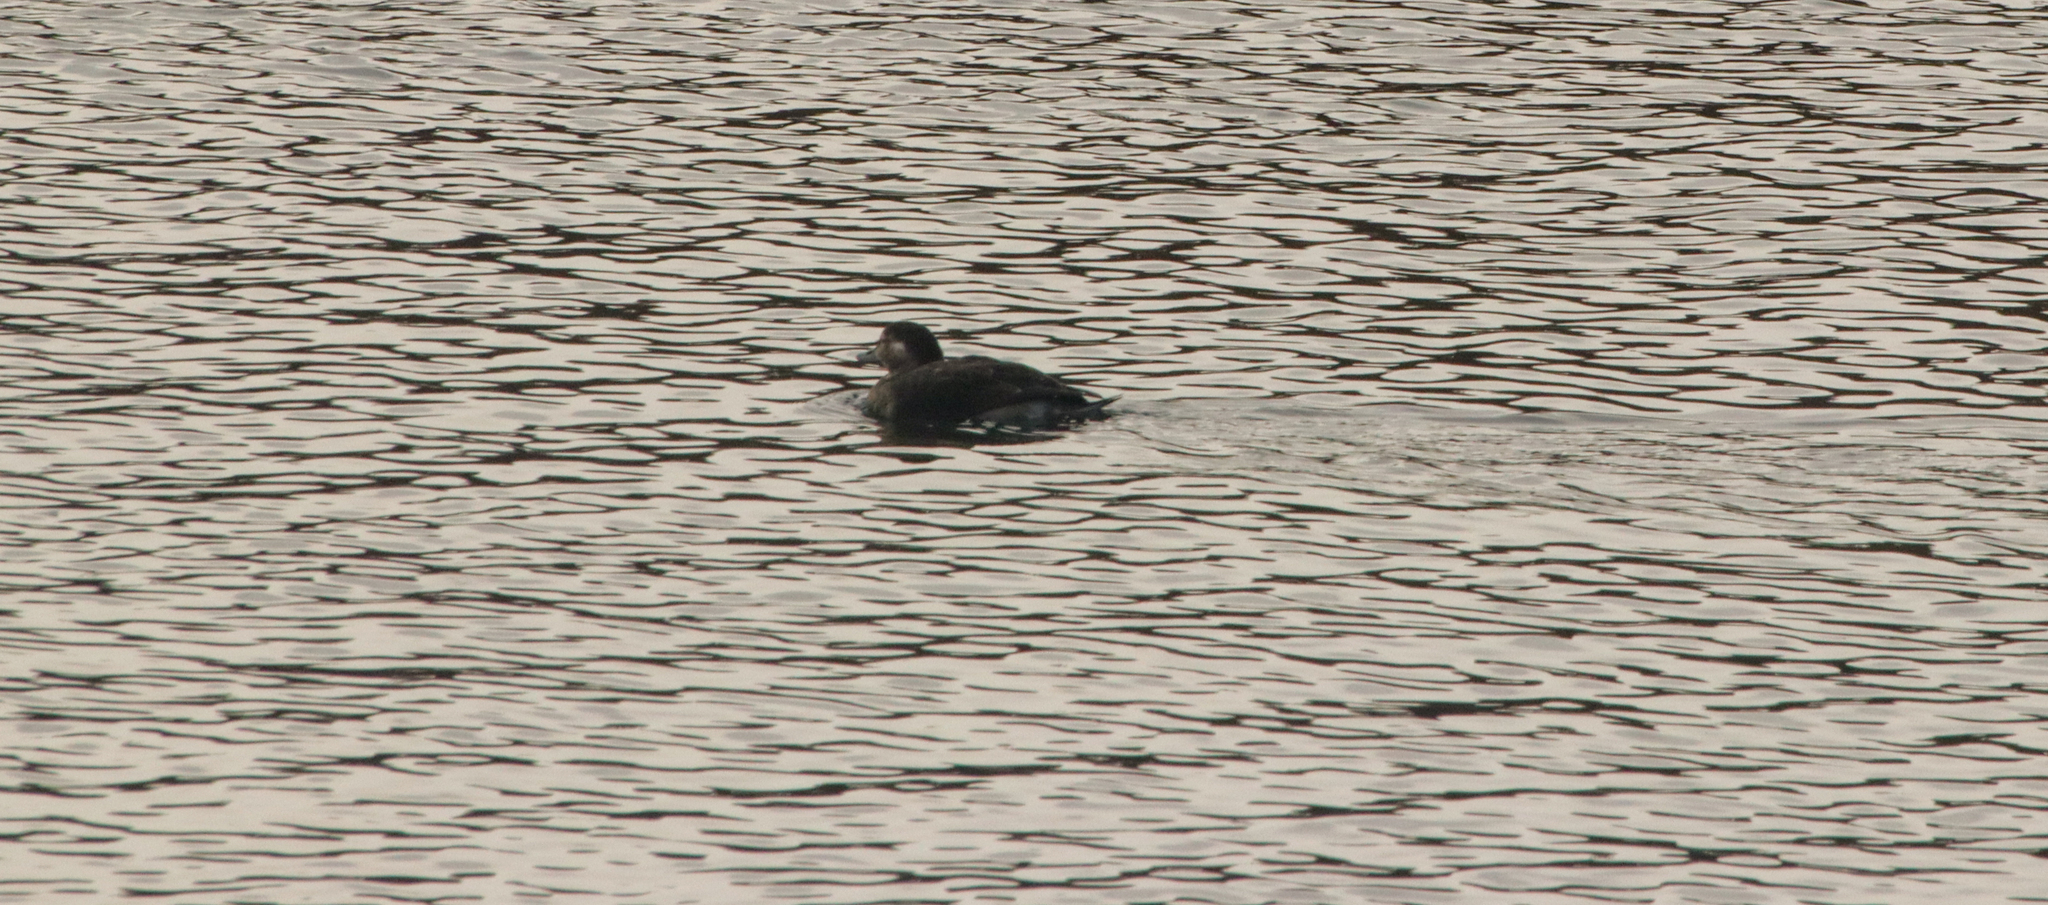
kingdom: Animalia
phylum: Chordata
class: Aves
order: Anseriformes
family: Anatidae
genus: Clangula
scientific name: Clangula hyemalis
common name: Long-tailed duck
